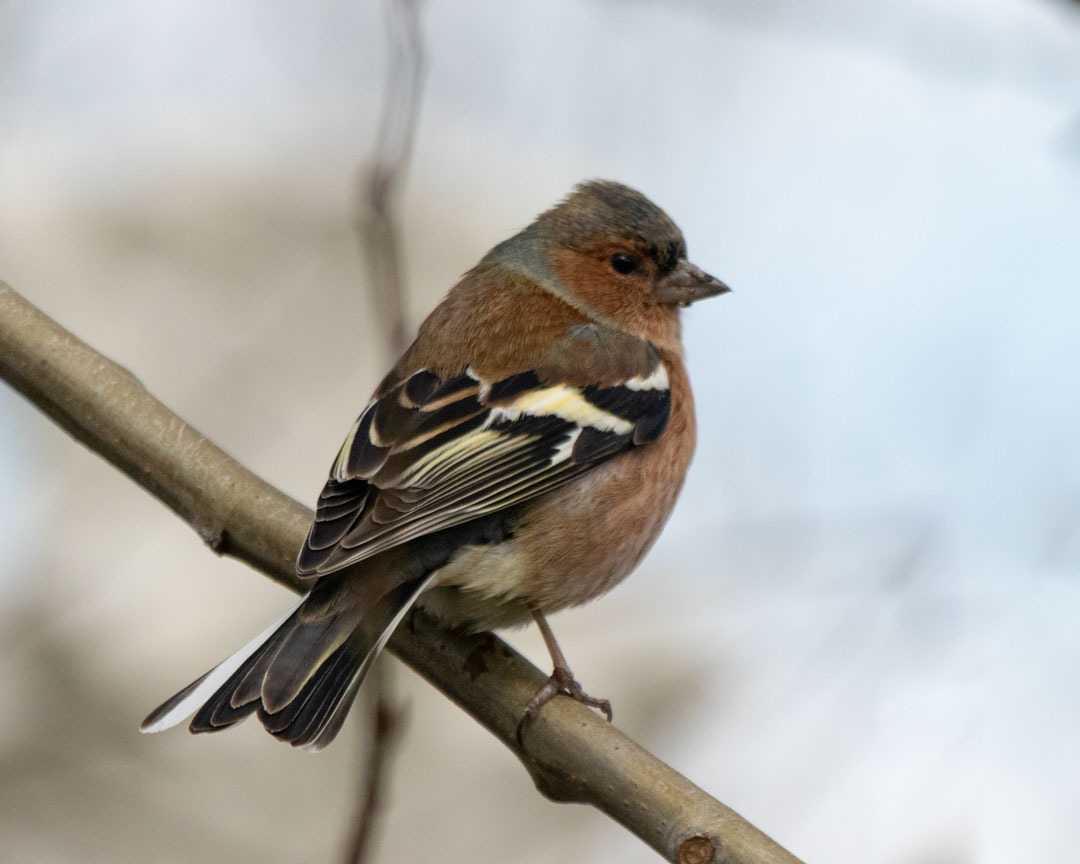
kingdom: Animalia
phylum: Chordata
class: Aves
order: Passeriformes
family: Fringillidae
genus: Fringilla
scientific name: Fringilla coelebs
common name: Common chaffinch
